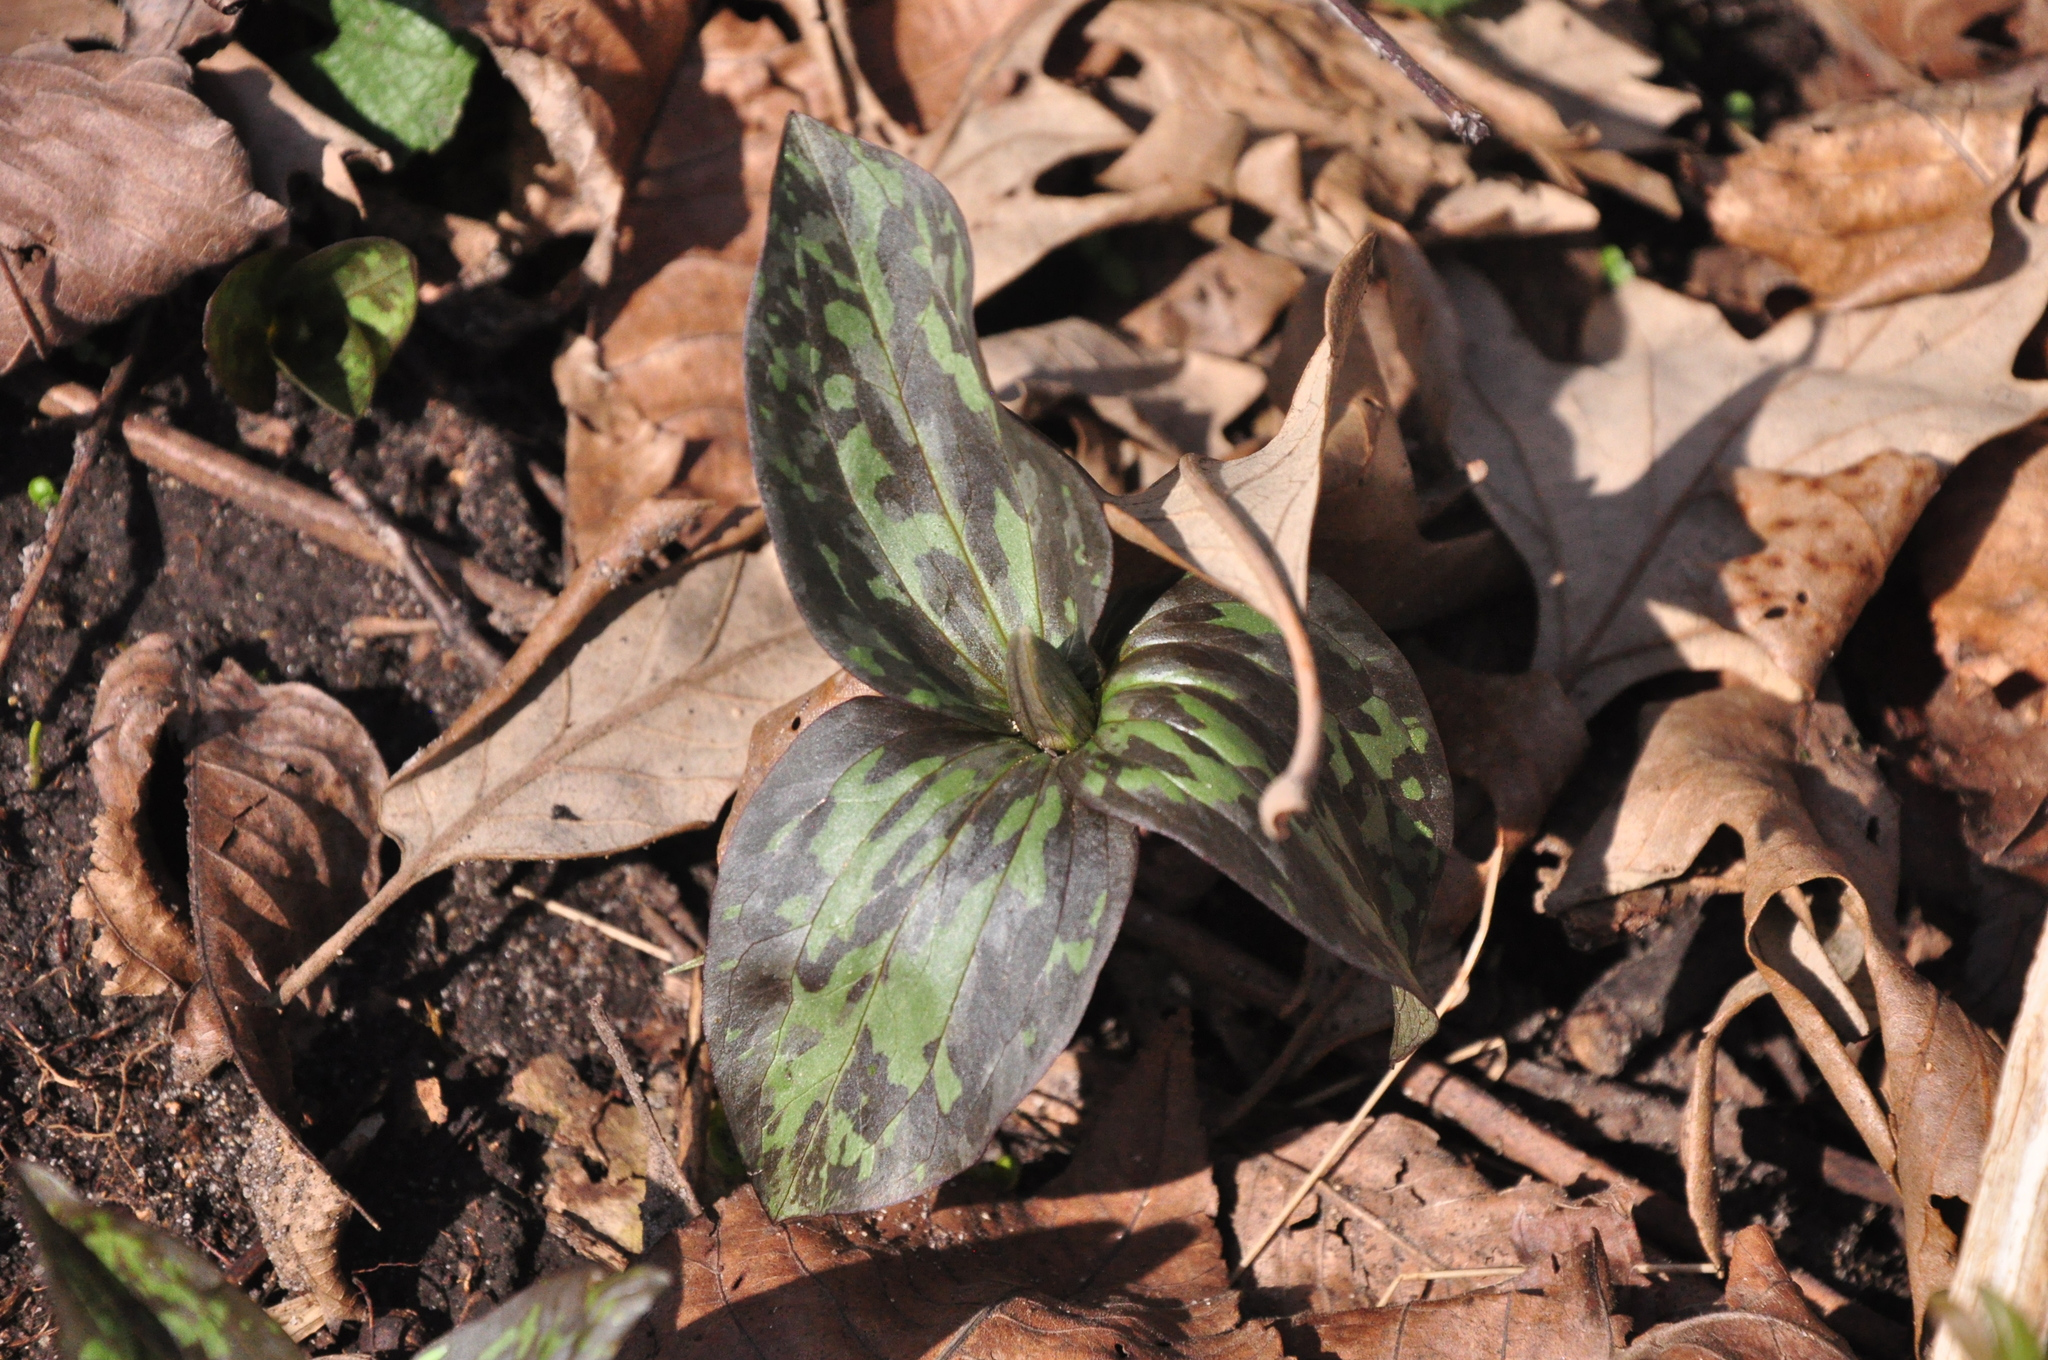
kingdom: Plantae
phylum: Tracheophyta
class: Liliopsida
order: Liliales
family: Melanthiaceae
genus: Trillium
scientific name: Trillium recurvatum
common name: Bloody butcher
